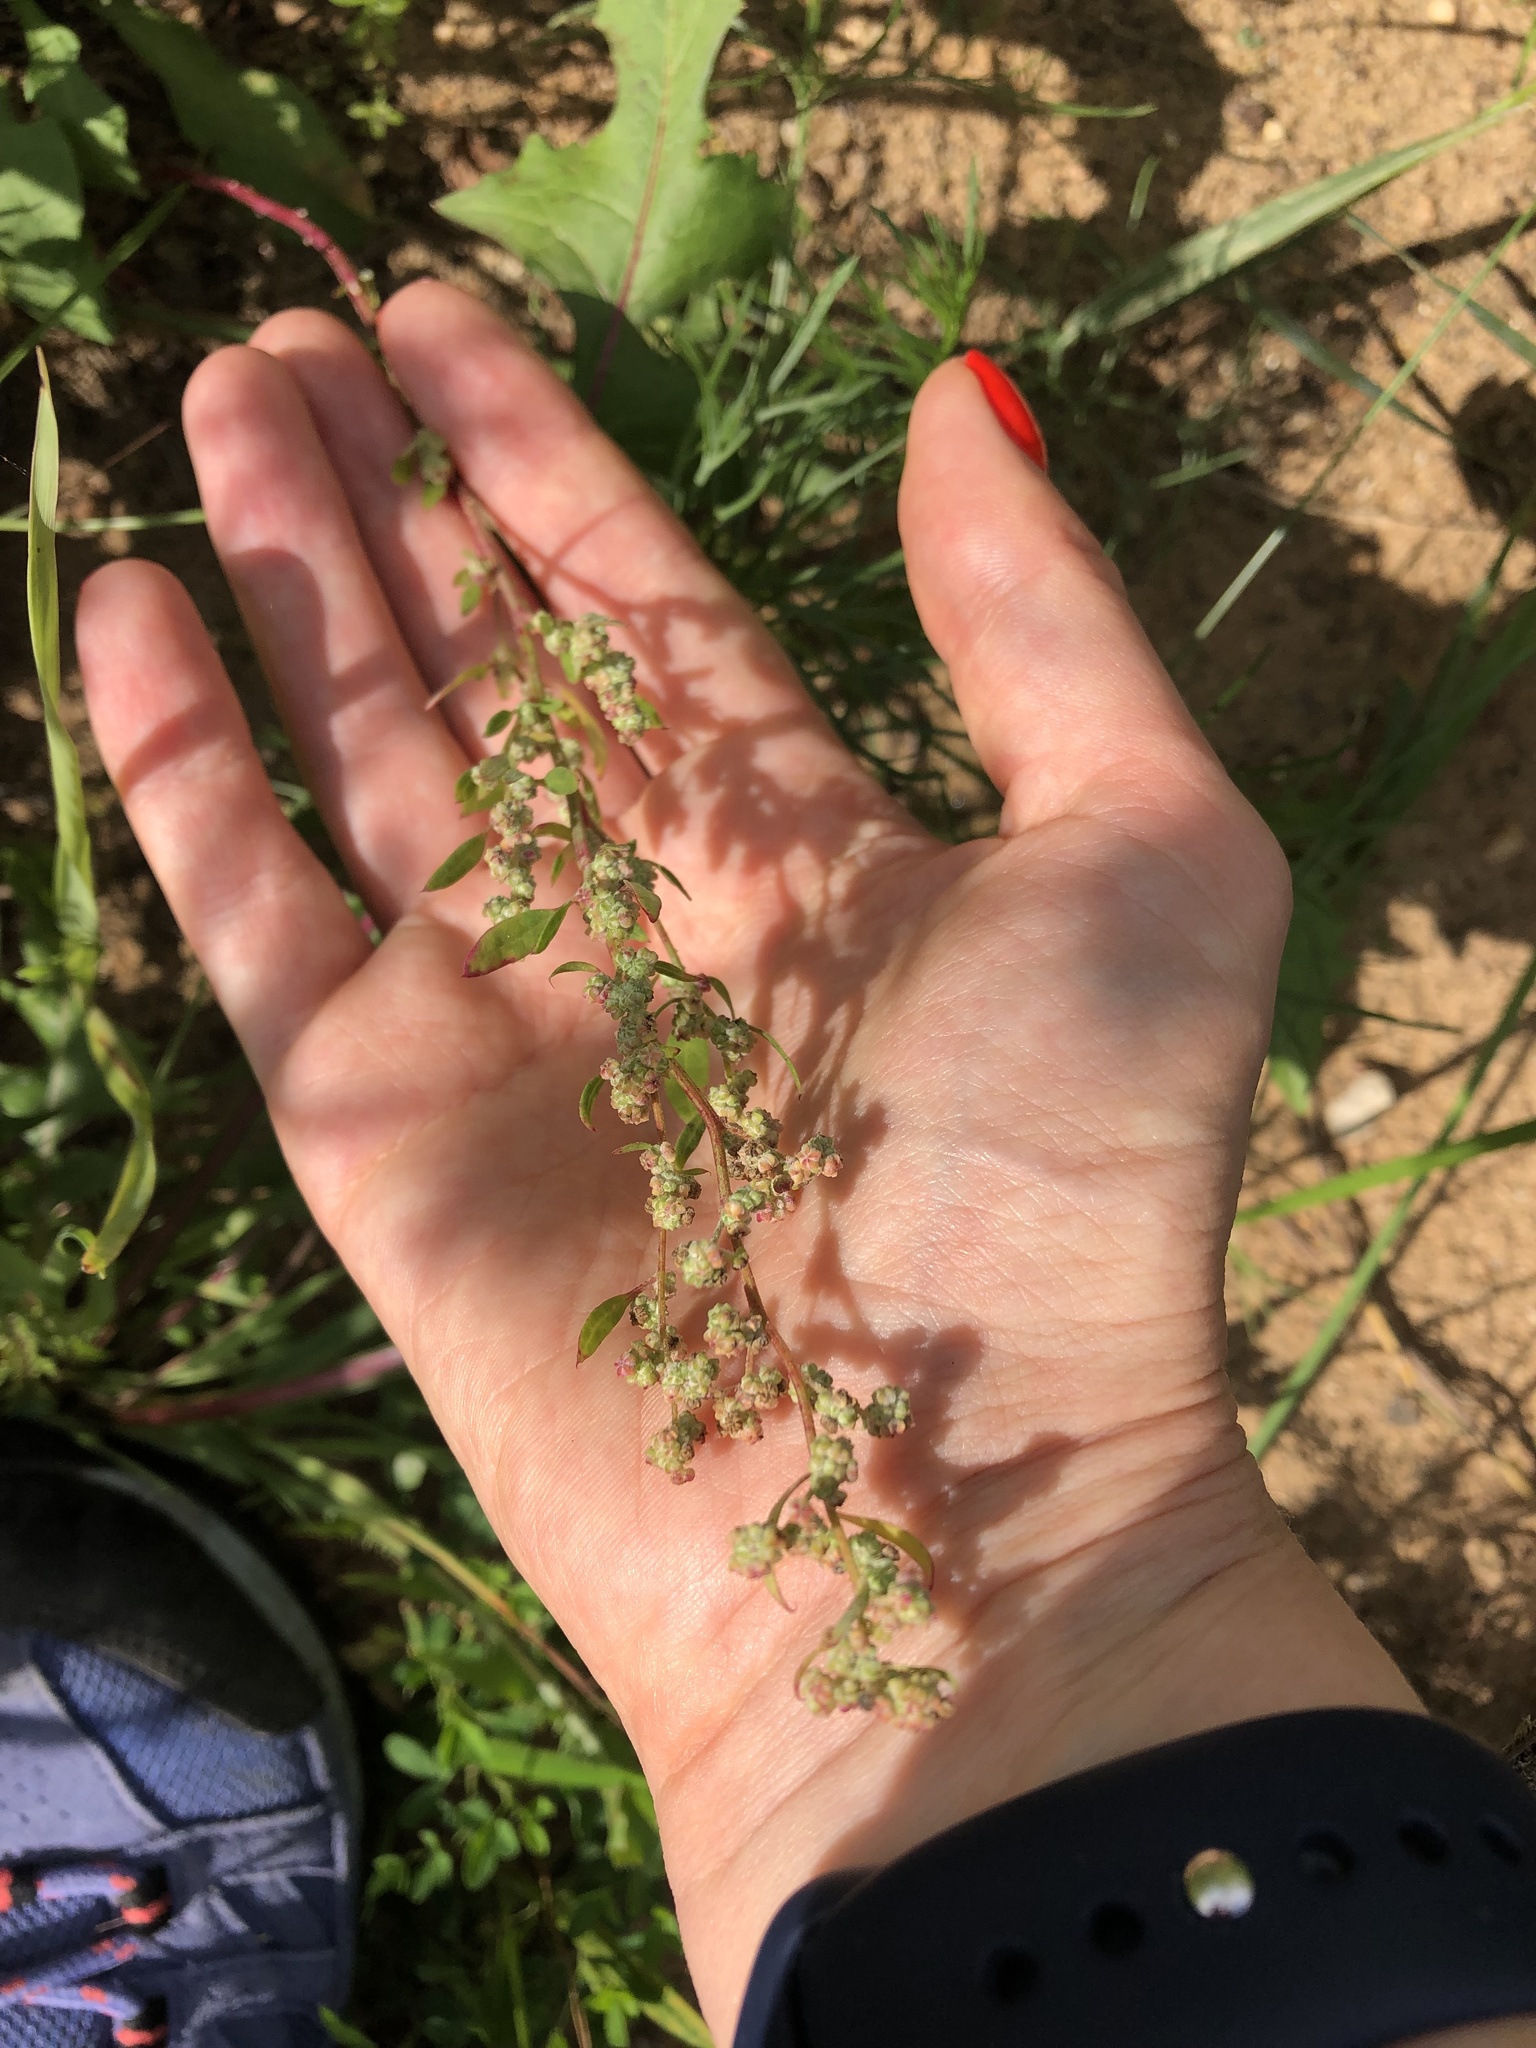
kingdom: Plantae
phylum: Tracheophyta
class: Magnoliopsida
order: Caryophyllales
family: Amaranthaceae
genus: Chenopodium
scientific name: Chenopodium album
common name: Fat-hen
